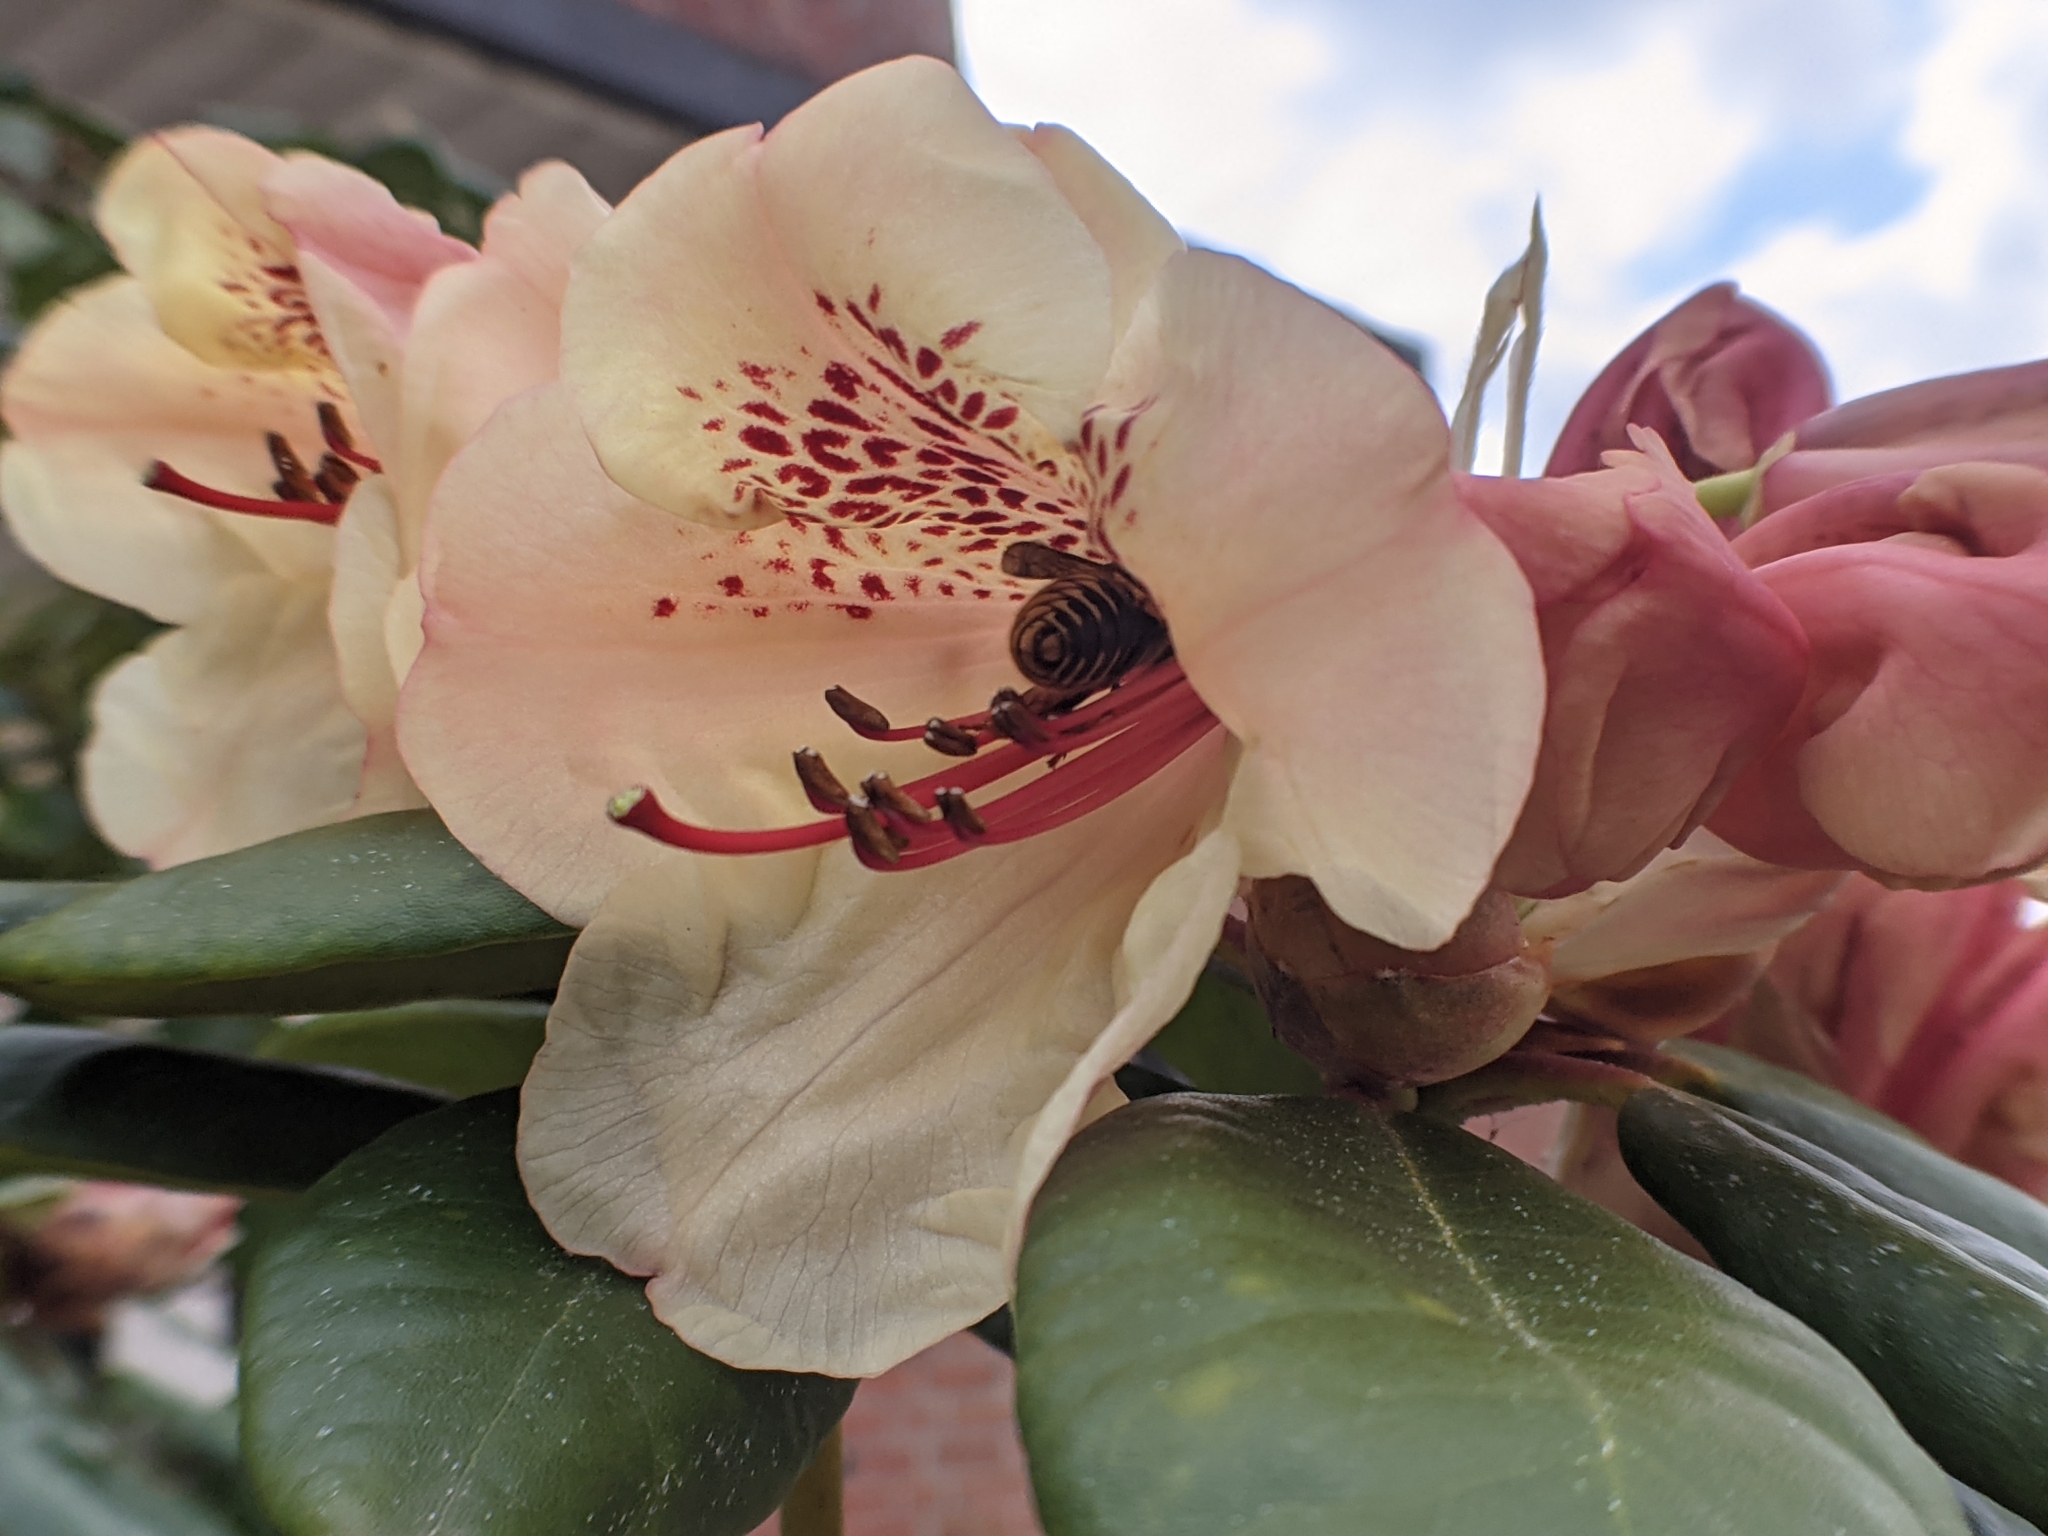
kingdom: Animalia
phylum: Arthropoda
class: Insecta
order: Hymenoptera
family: Vespidae
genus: Vespula
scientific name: Vespula vulgaris
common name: Common wasp
